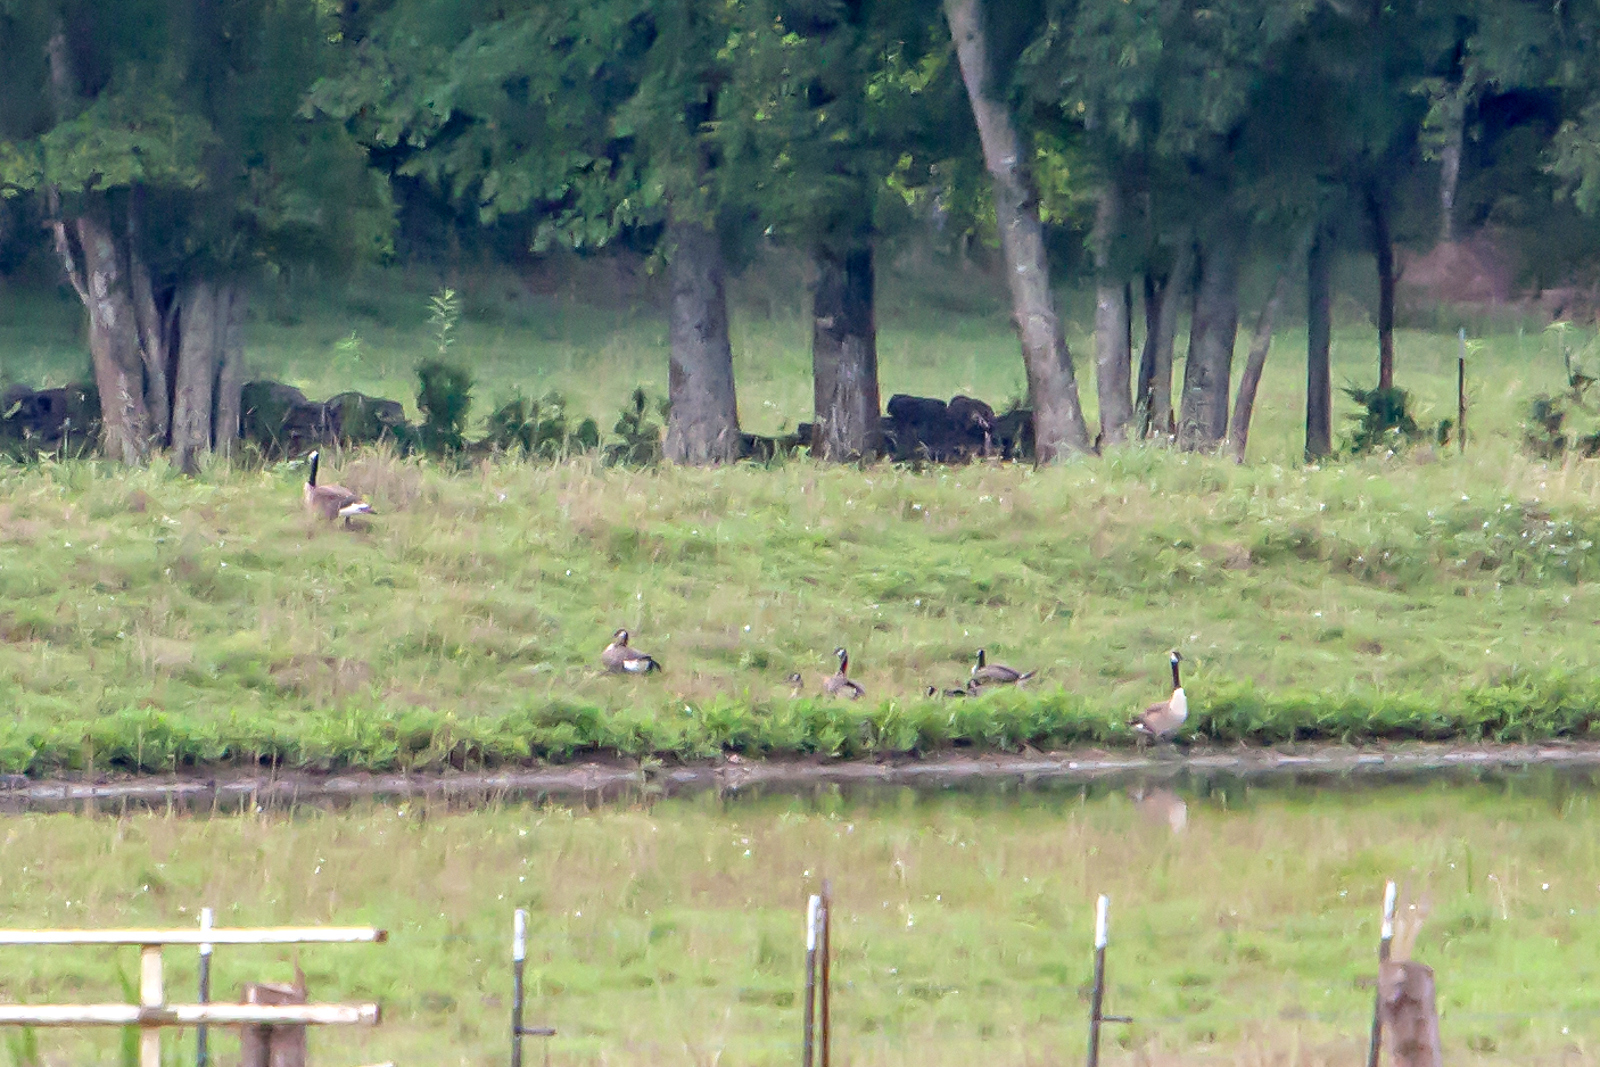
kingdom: Animalia
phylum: Chordata
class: Aves
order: Anseriformes
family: Anatidae
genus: Branta
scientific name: Branta canadensis
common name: Canada goose
